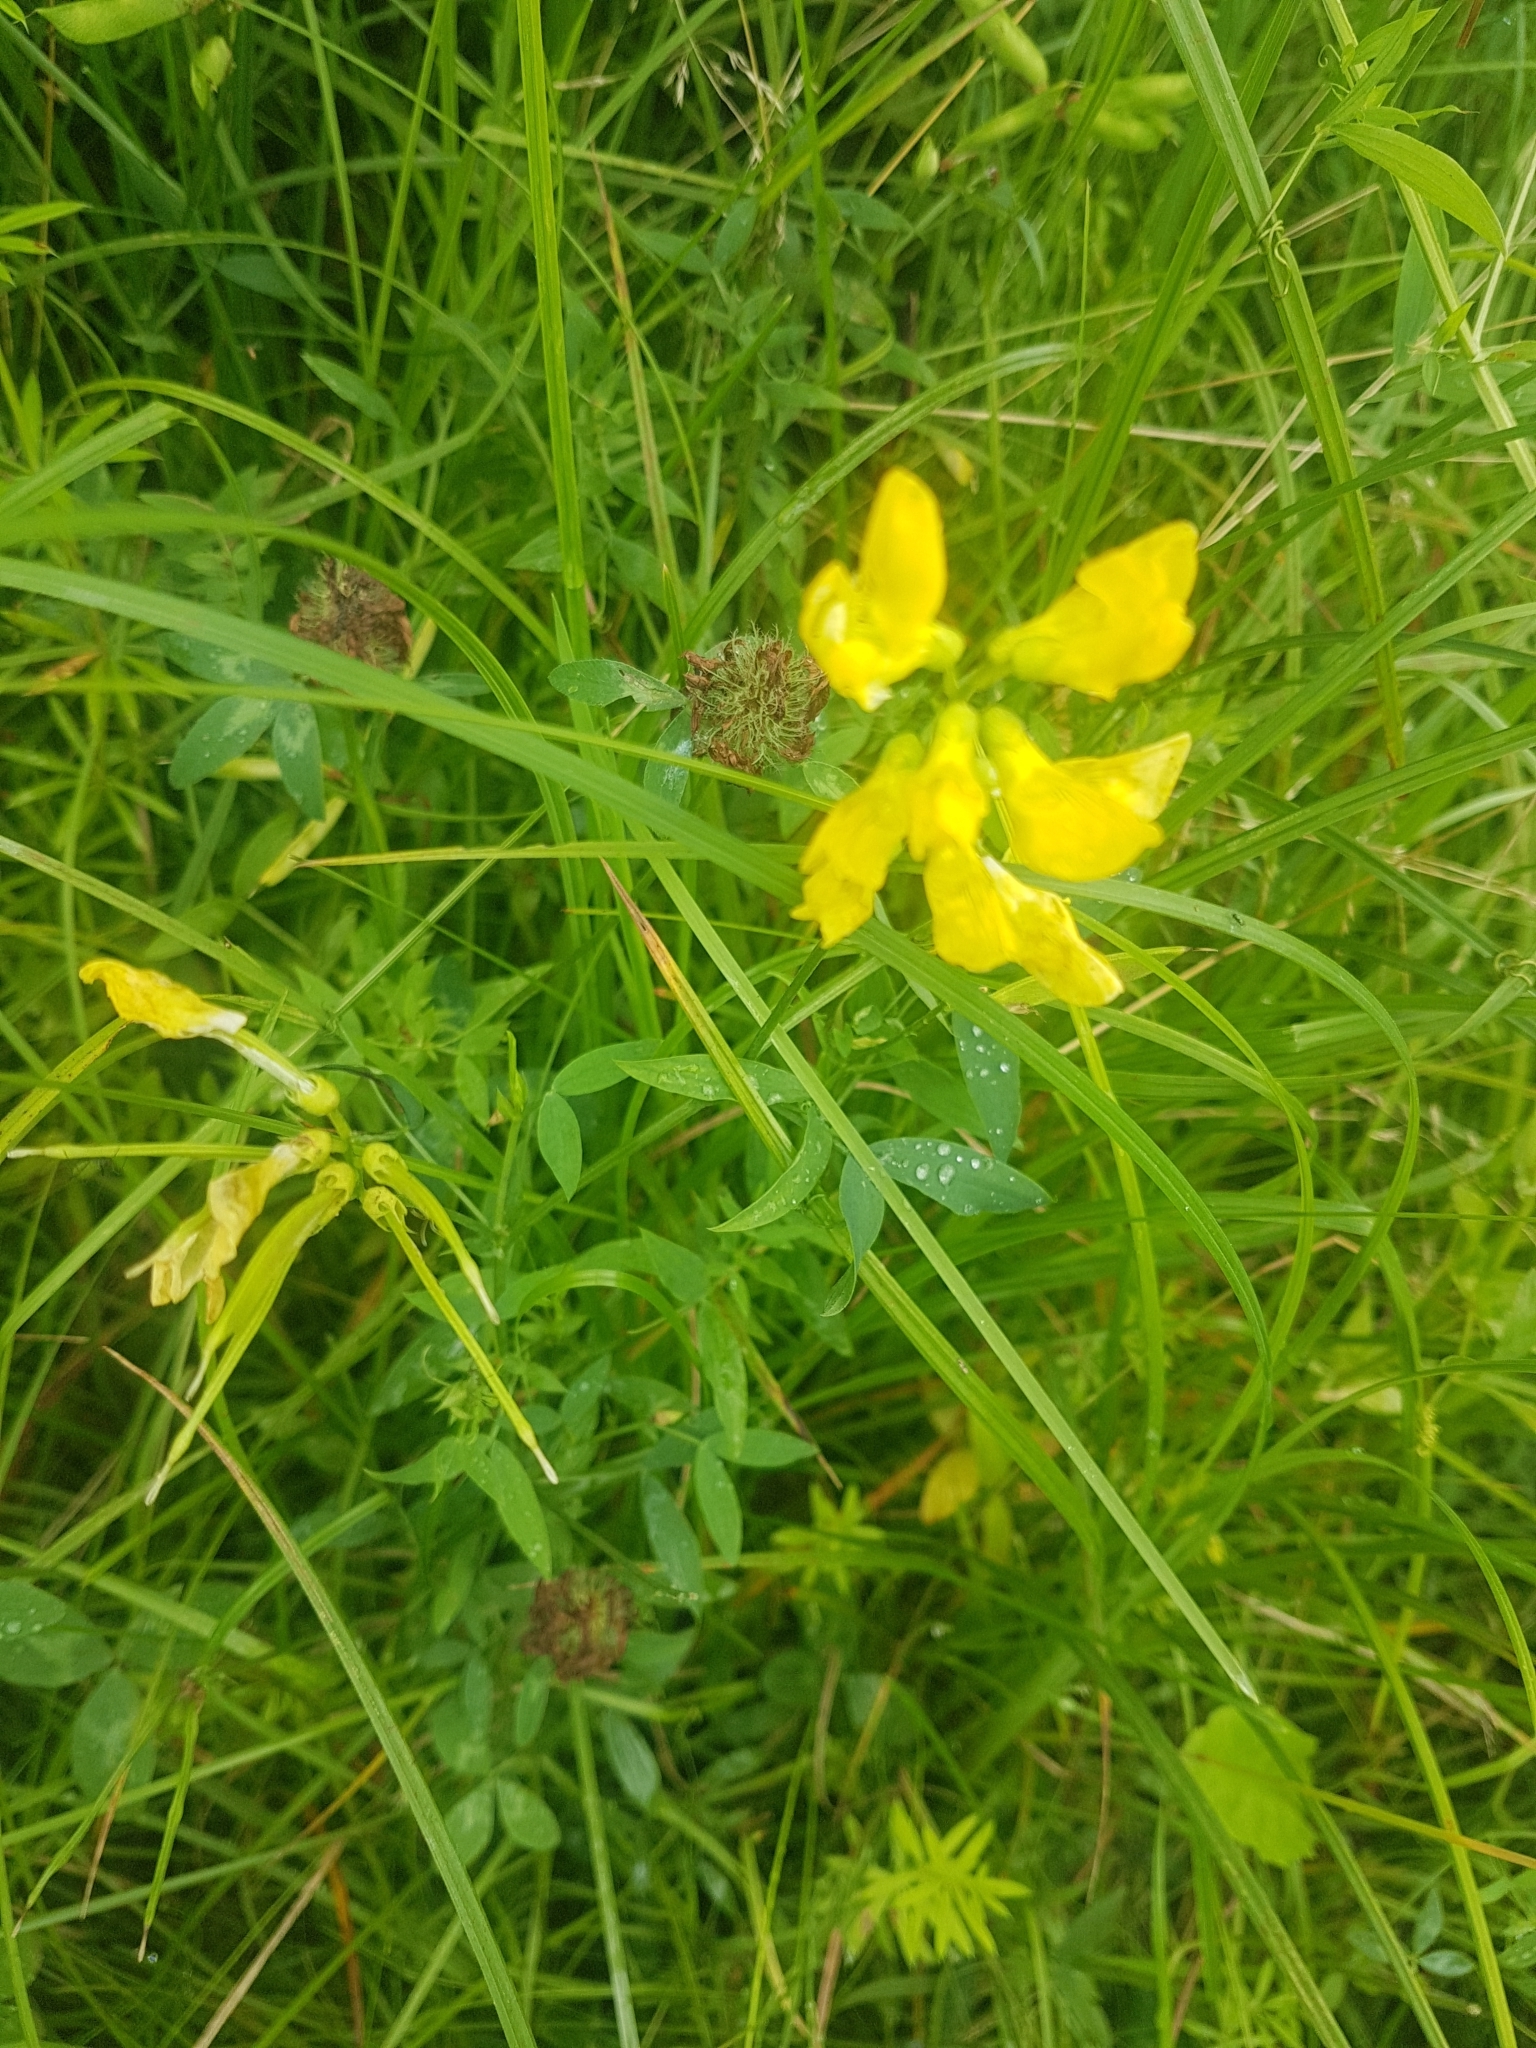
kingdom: Plantae
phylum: Tracheophyta
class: Magnoliopsida
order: Fabales
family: Fabaceae
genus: Lathyrus
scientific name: Lathyrus pratensis
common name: Meadow vetchling
